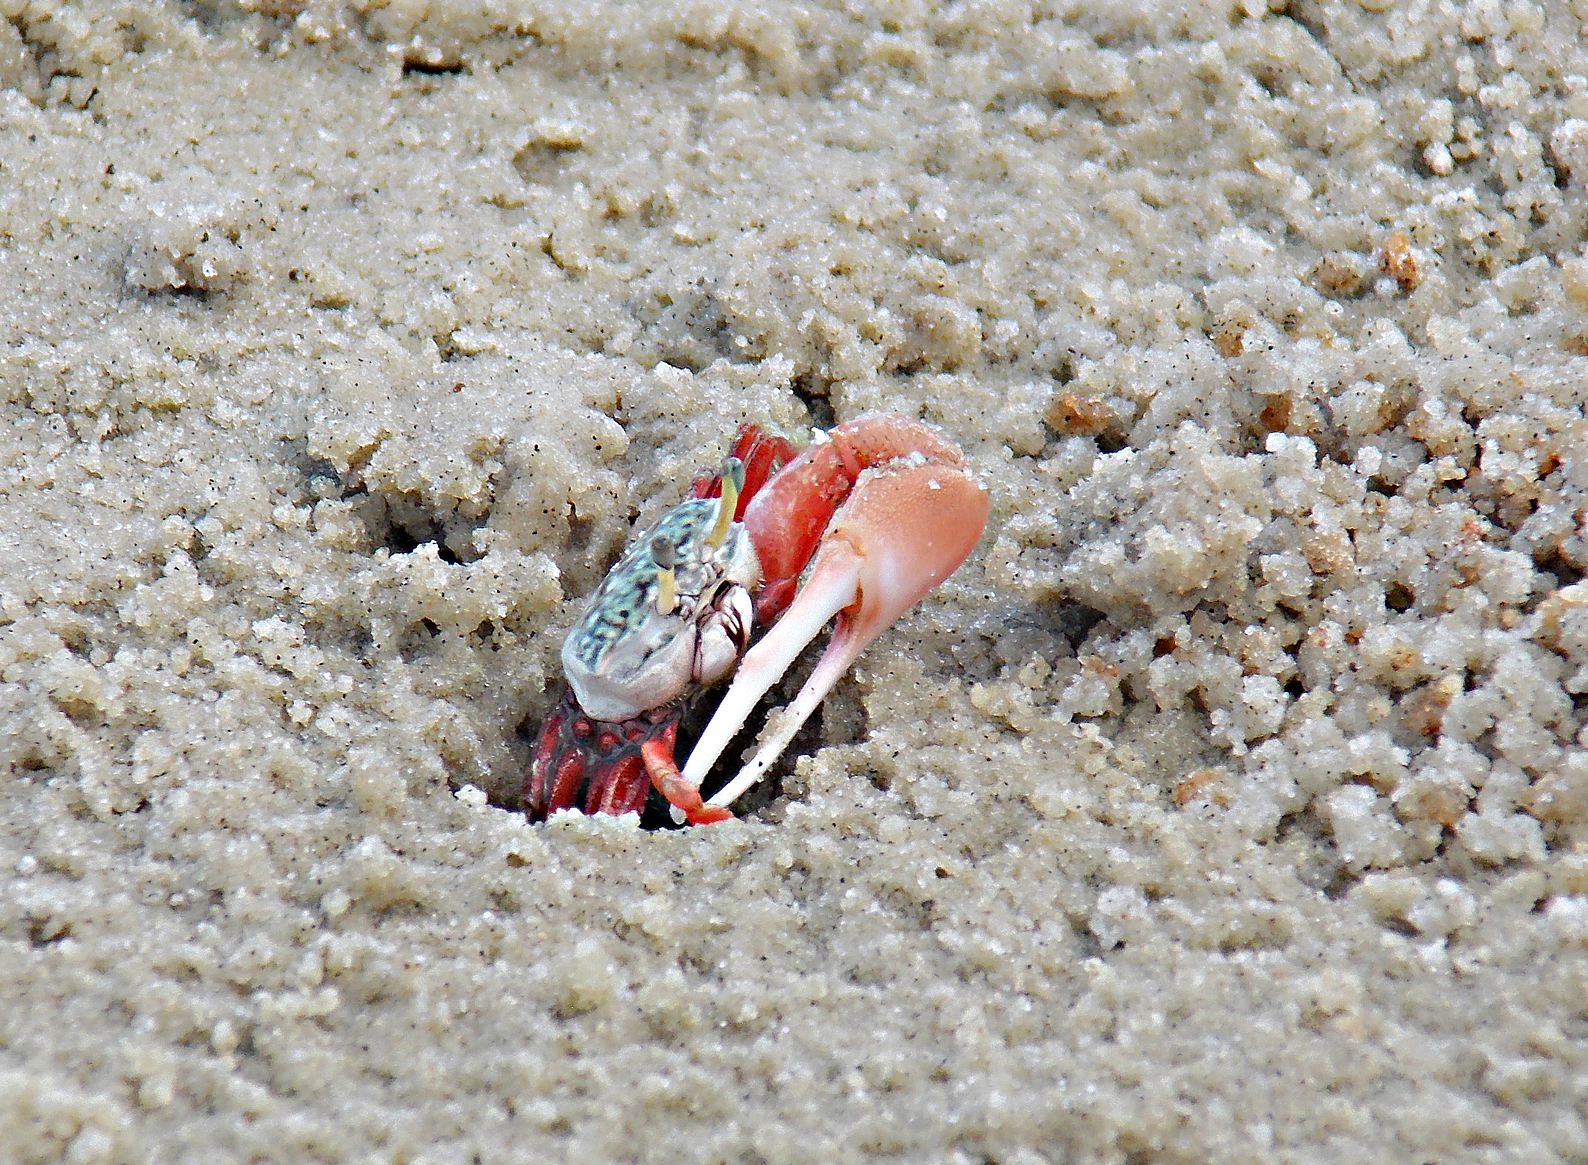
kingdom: Animalia
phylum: Arthropoda
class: Malacostraca
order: Decapoda
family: Ocypodidae
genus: Leptuca
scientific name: Leptuca uruguayensis
